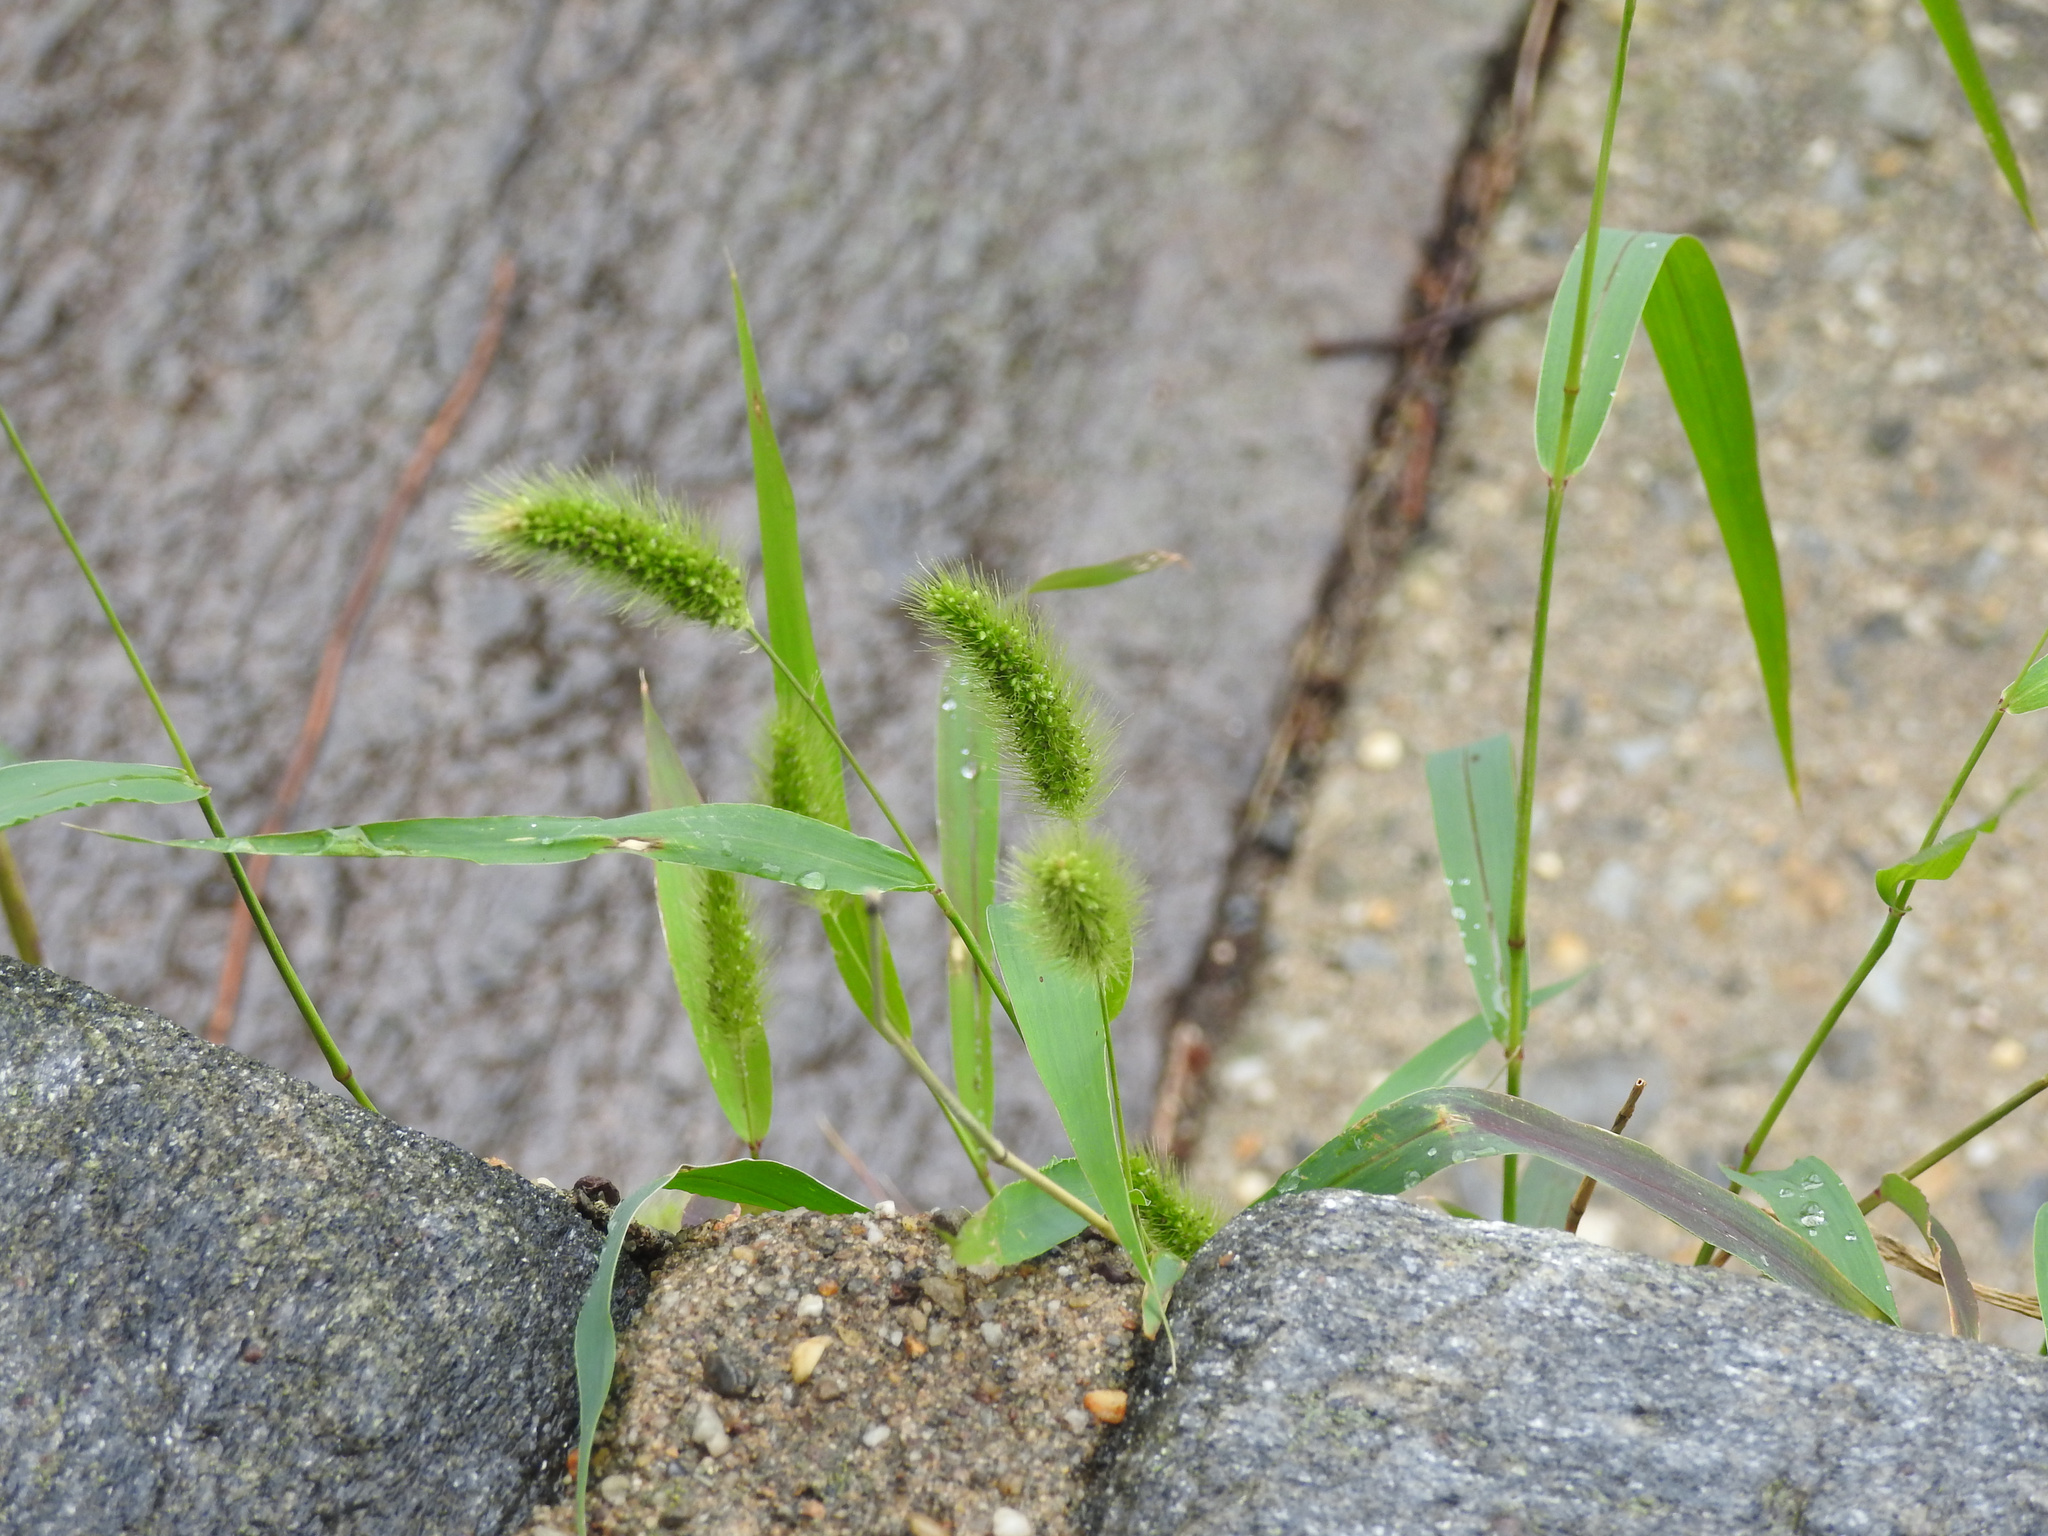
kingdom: Plantae
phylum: Tracheophyta
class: Liliopsida
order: Poales
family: Poaceae
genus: Setaria
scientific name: Setaria viridis
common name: Green bristlegrass
